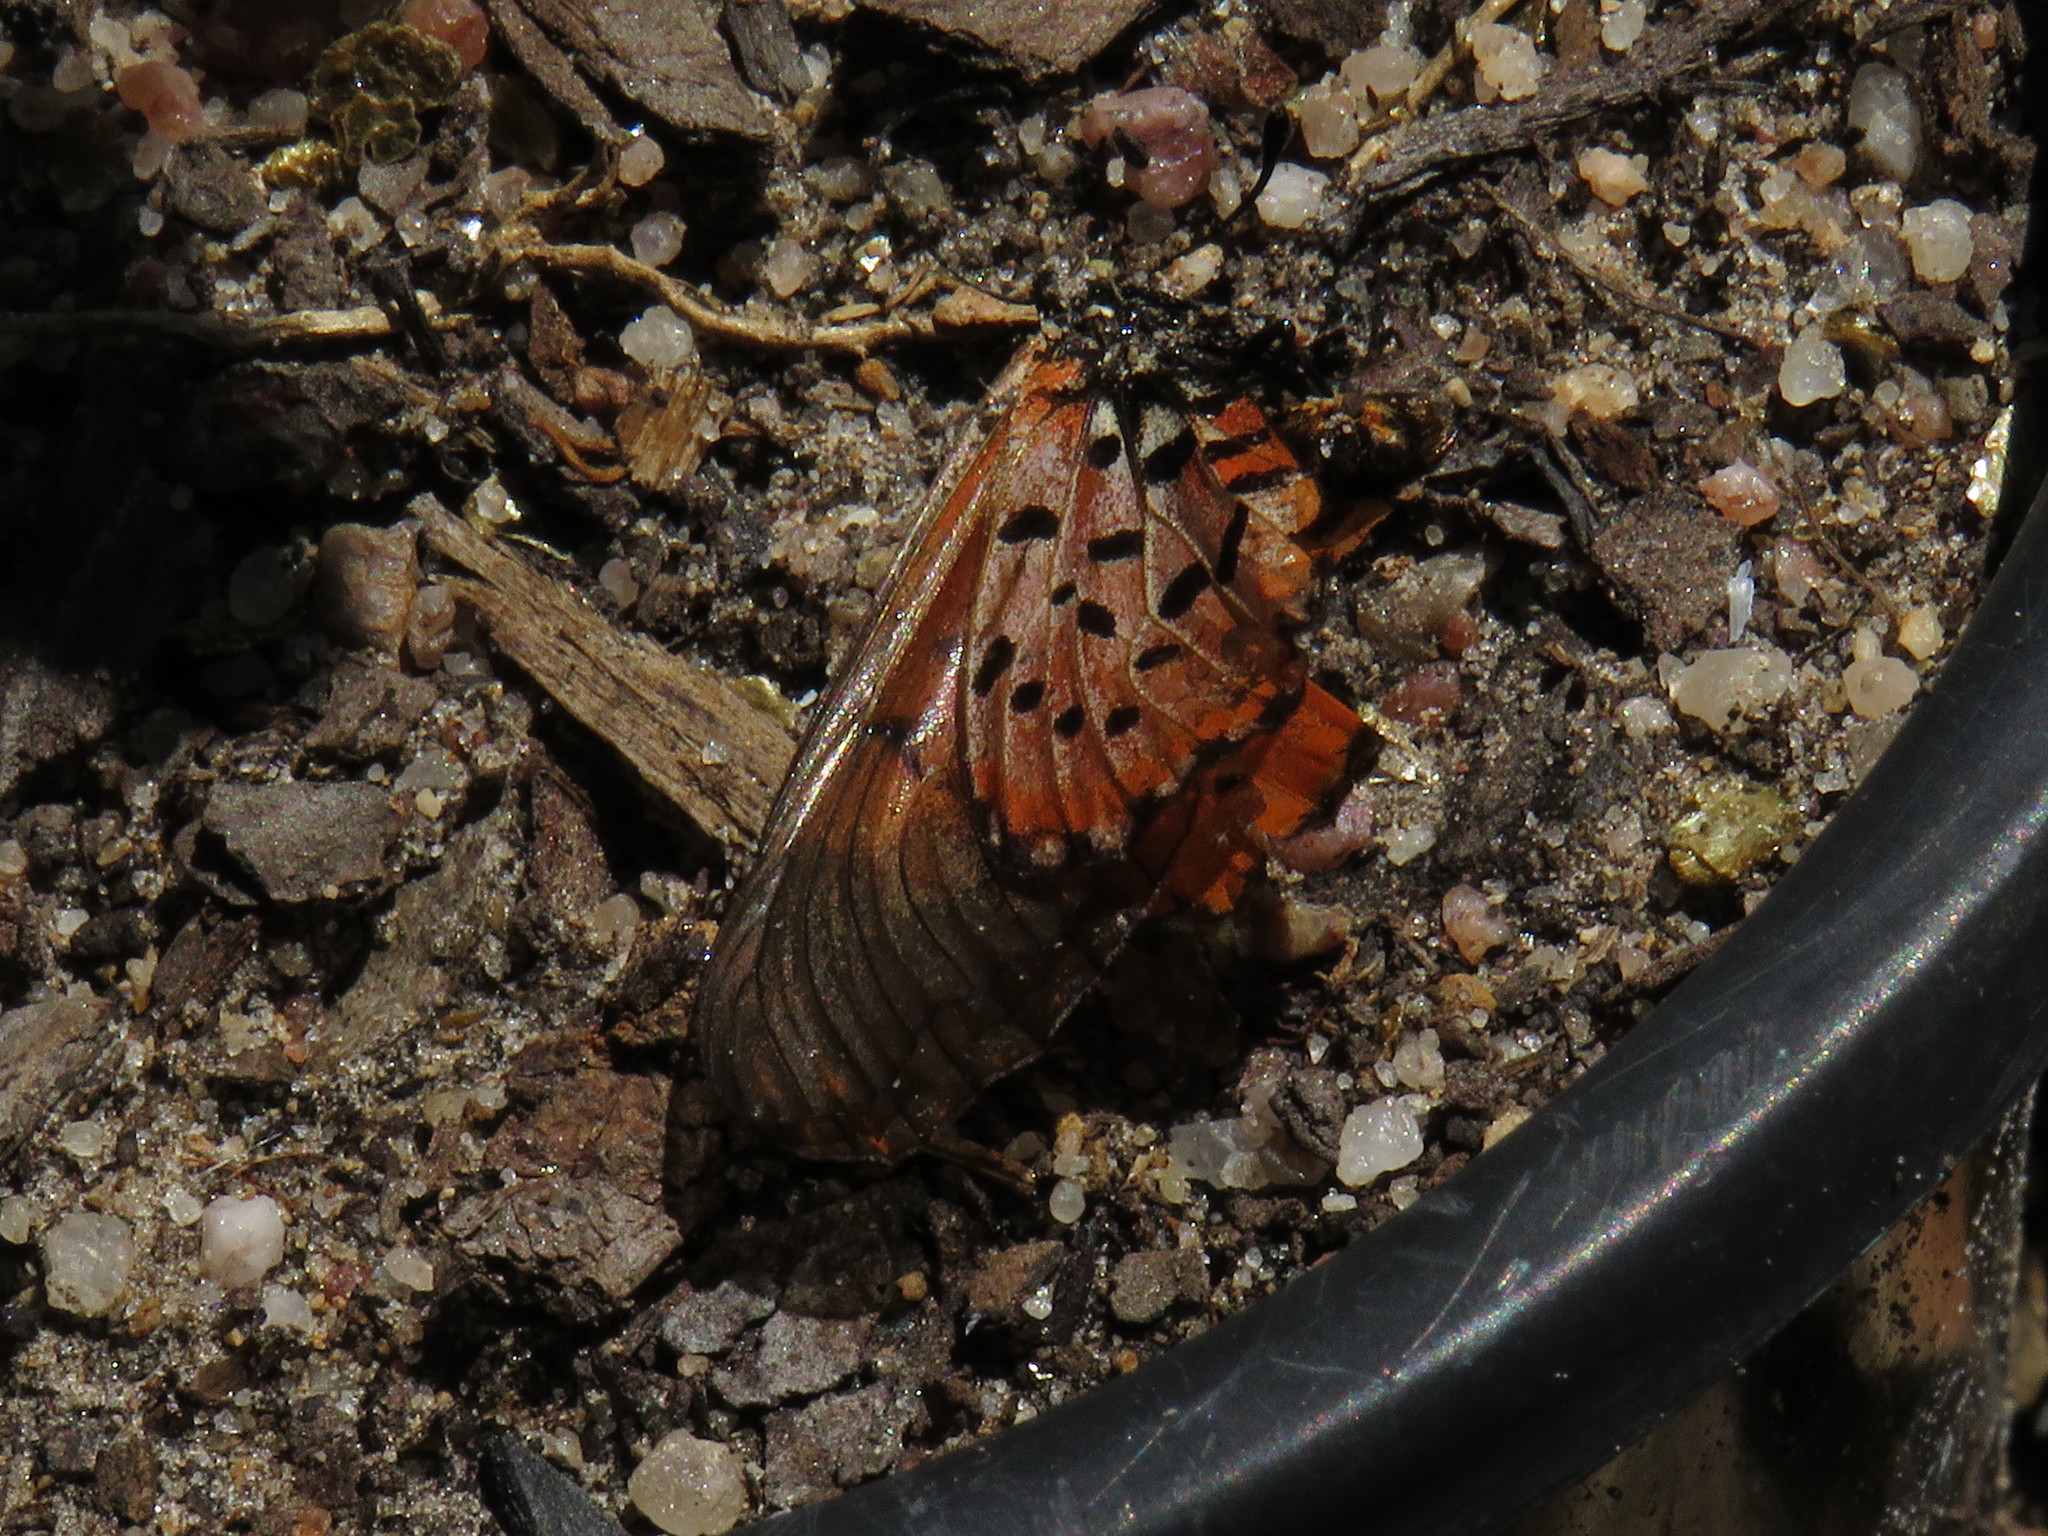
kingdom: Animalia
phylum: Arthropoda
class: Insecta
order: Lepidoptera
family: Nymphalidae
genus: Acraea
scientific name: Acraea horta
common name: Garden acraea
